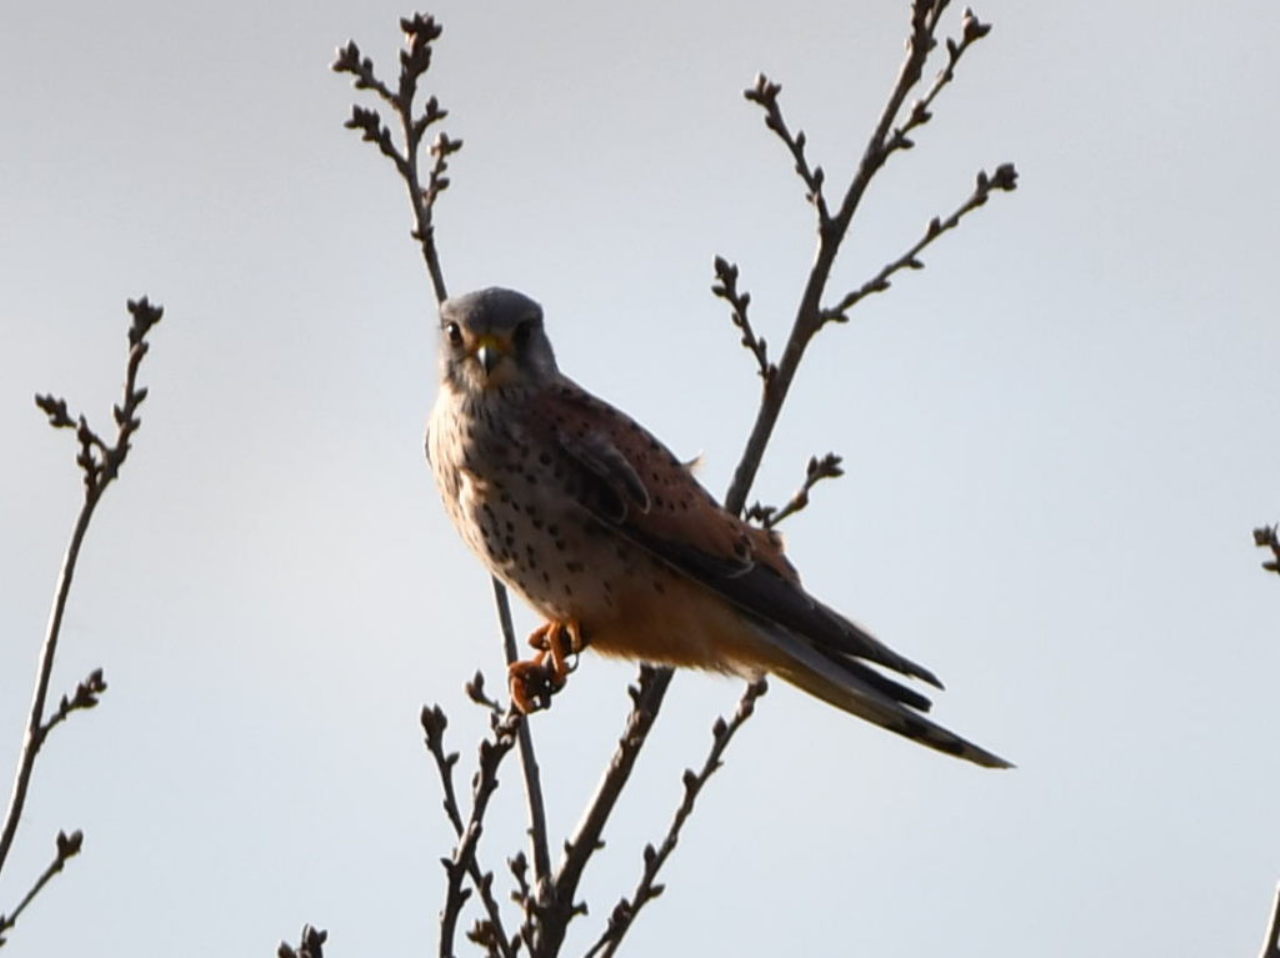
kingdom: Animalia
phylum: Chordata
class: Aves
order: Falconiformes
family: Falconidae
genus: Falco
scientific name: Falco tinnunculus
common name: Common kestrel
